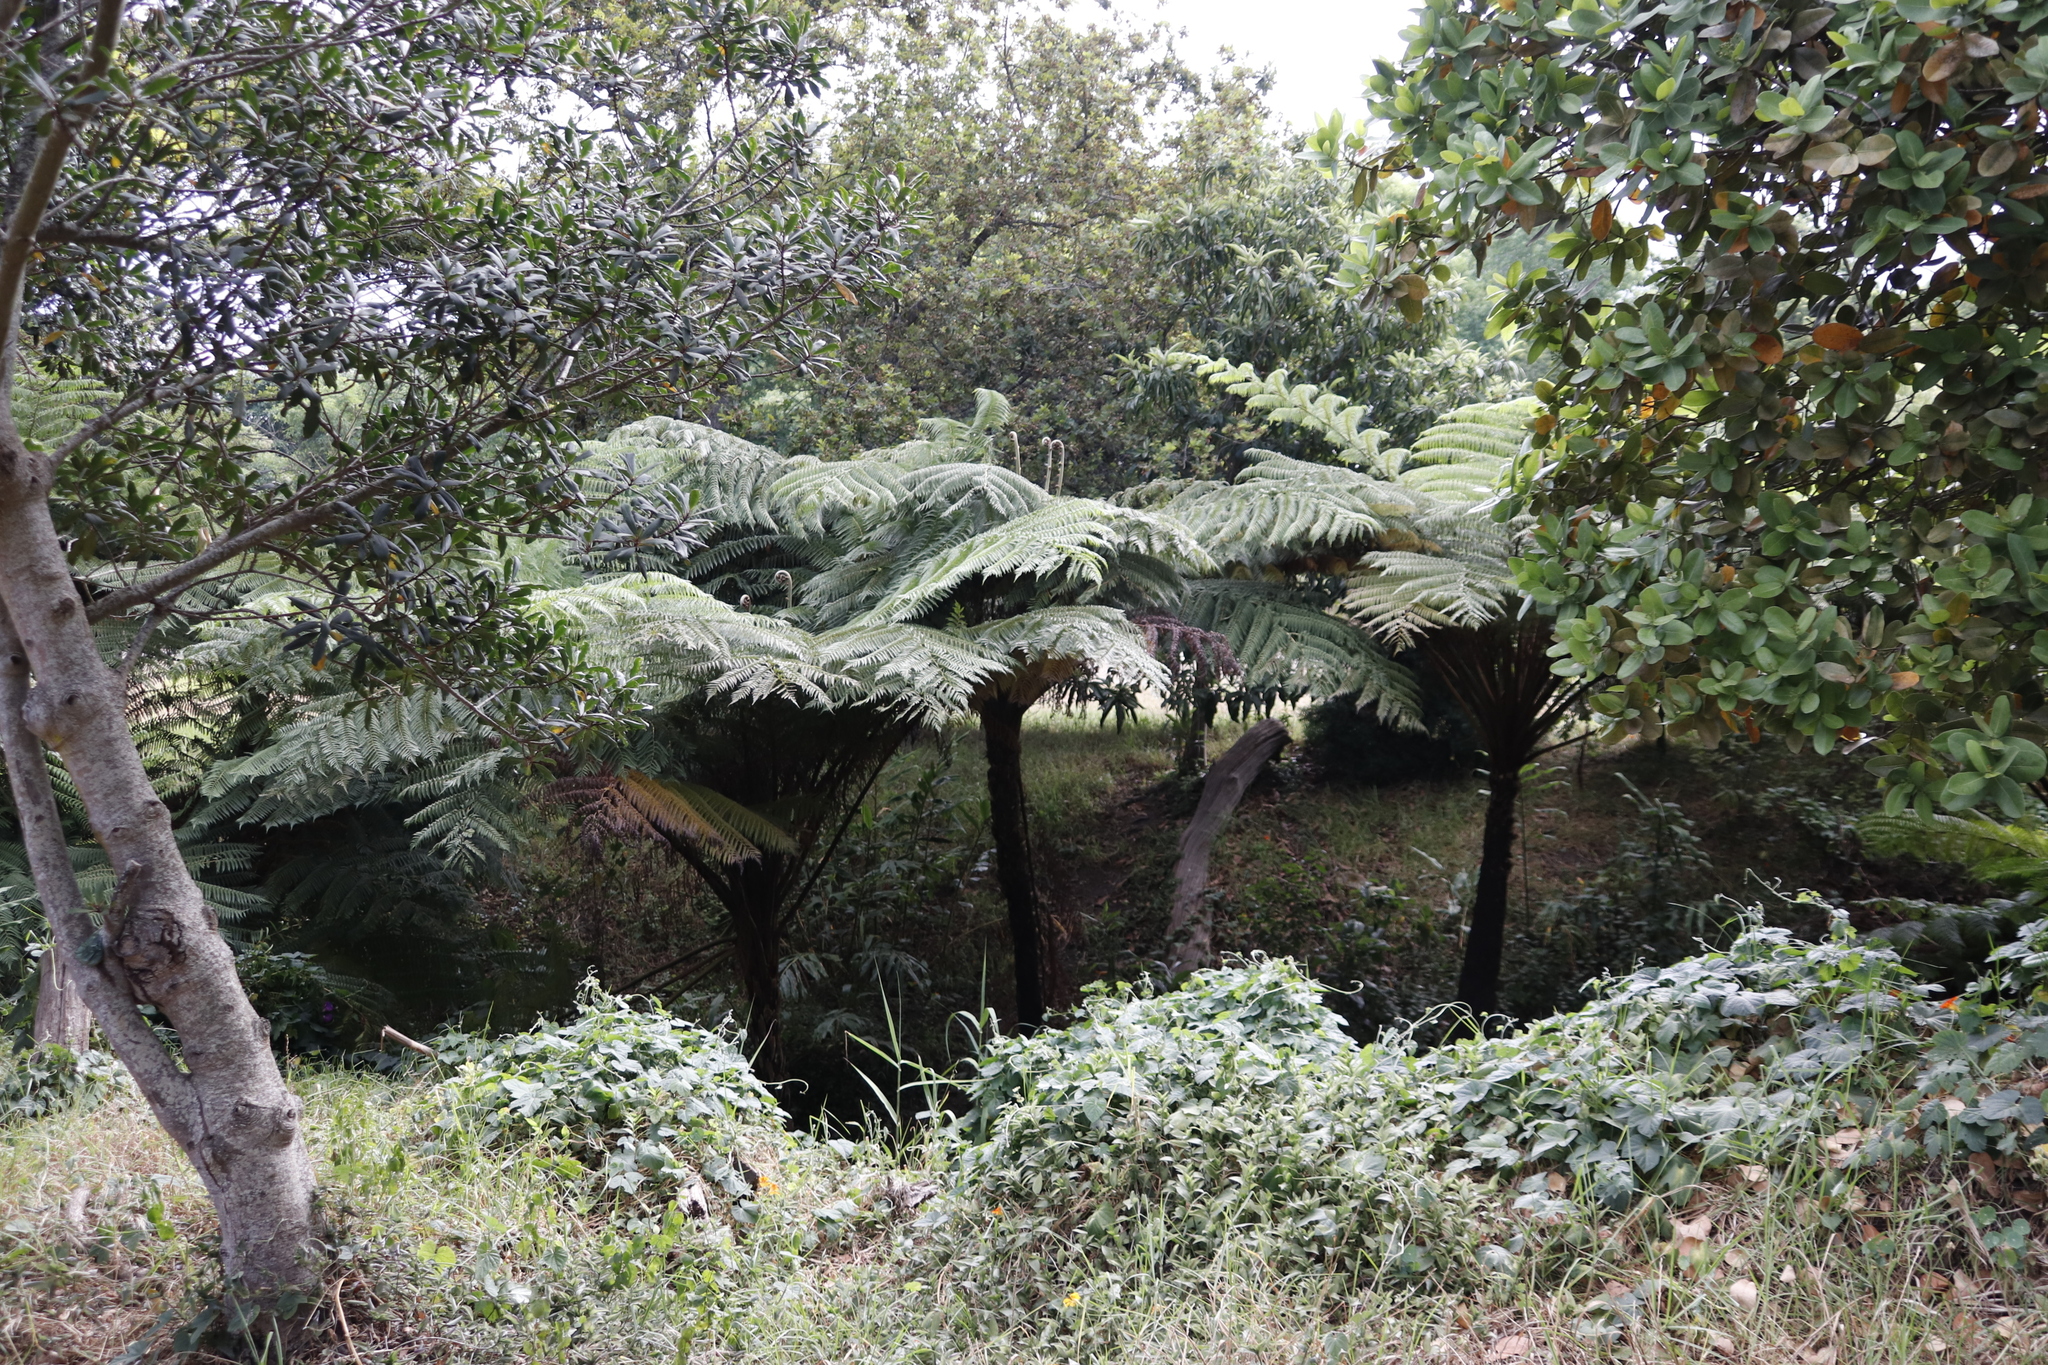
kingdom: Plantae
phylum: Tracheophyta
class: Polypodiopsida
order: Cyatheales
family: Cyatheaceae
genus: Sphaeropteris
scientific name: Sphaeropteris cooperi
